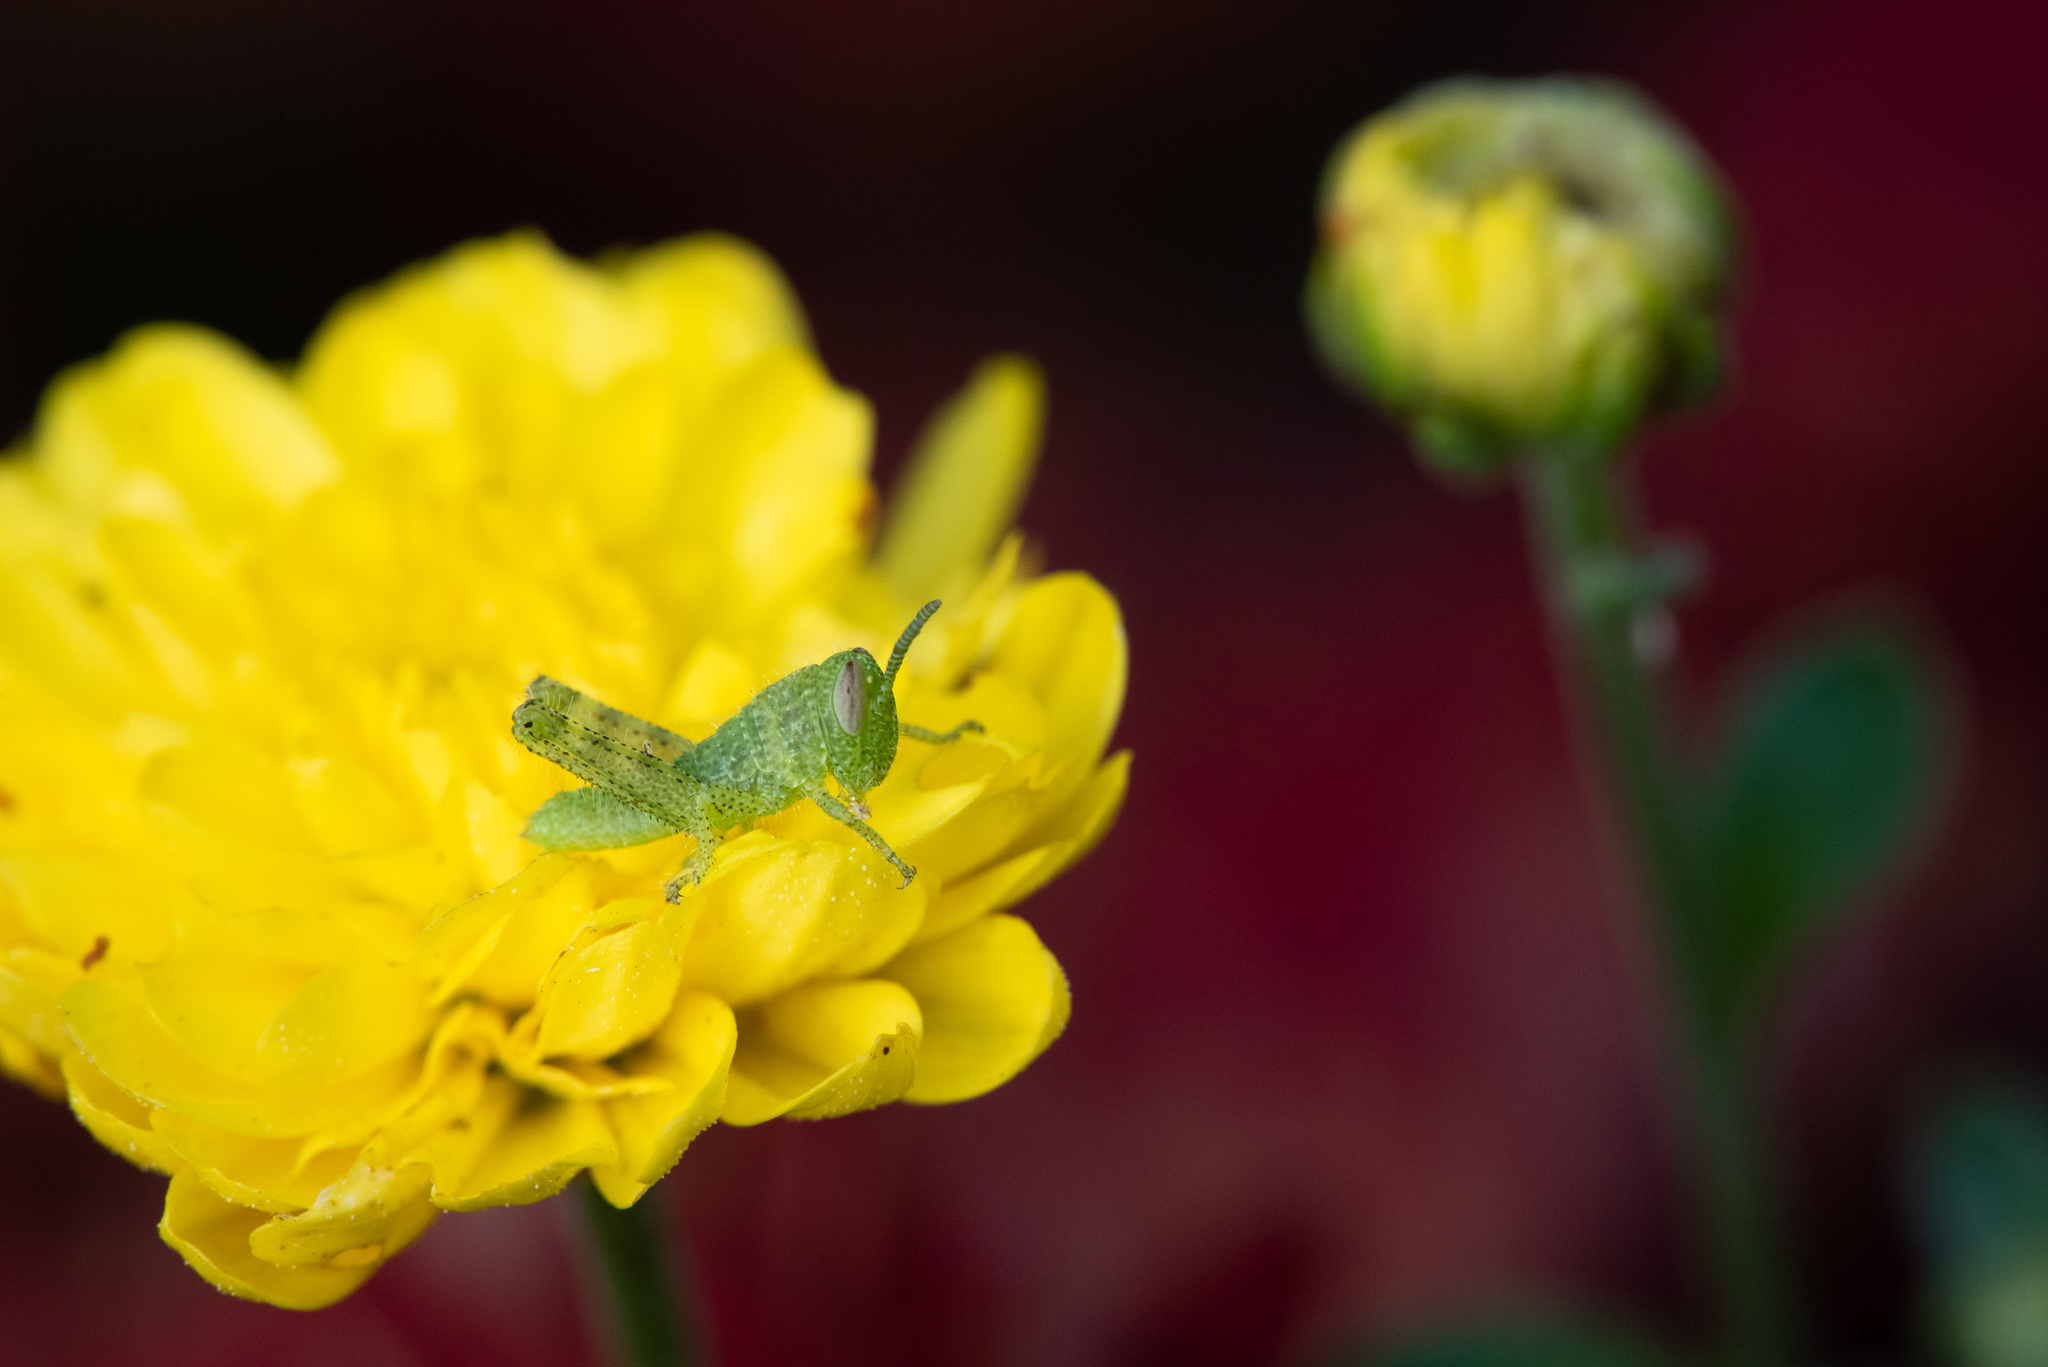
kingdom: Animalia
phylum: Arthropoda
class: Insecta
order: Orthoptera
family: Acrididae
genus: Schistocerca
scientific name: Schistocerca nitens
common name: Vagrant grasshopper
